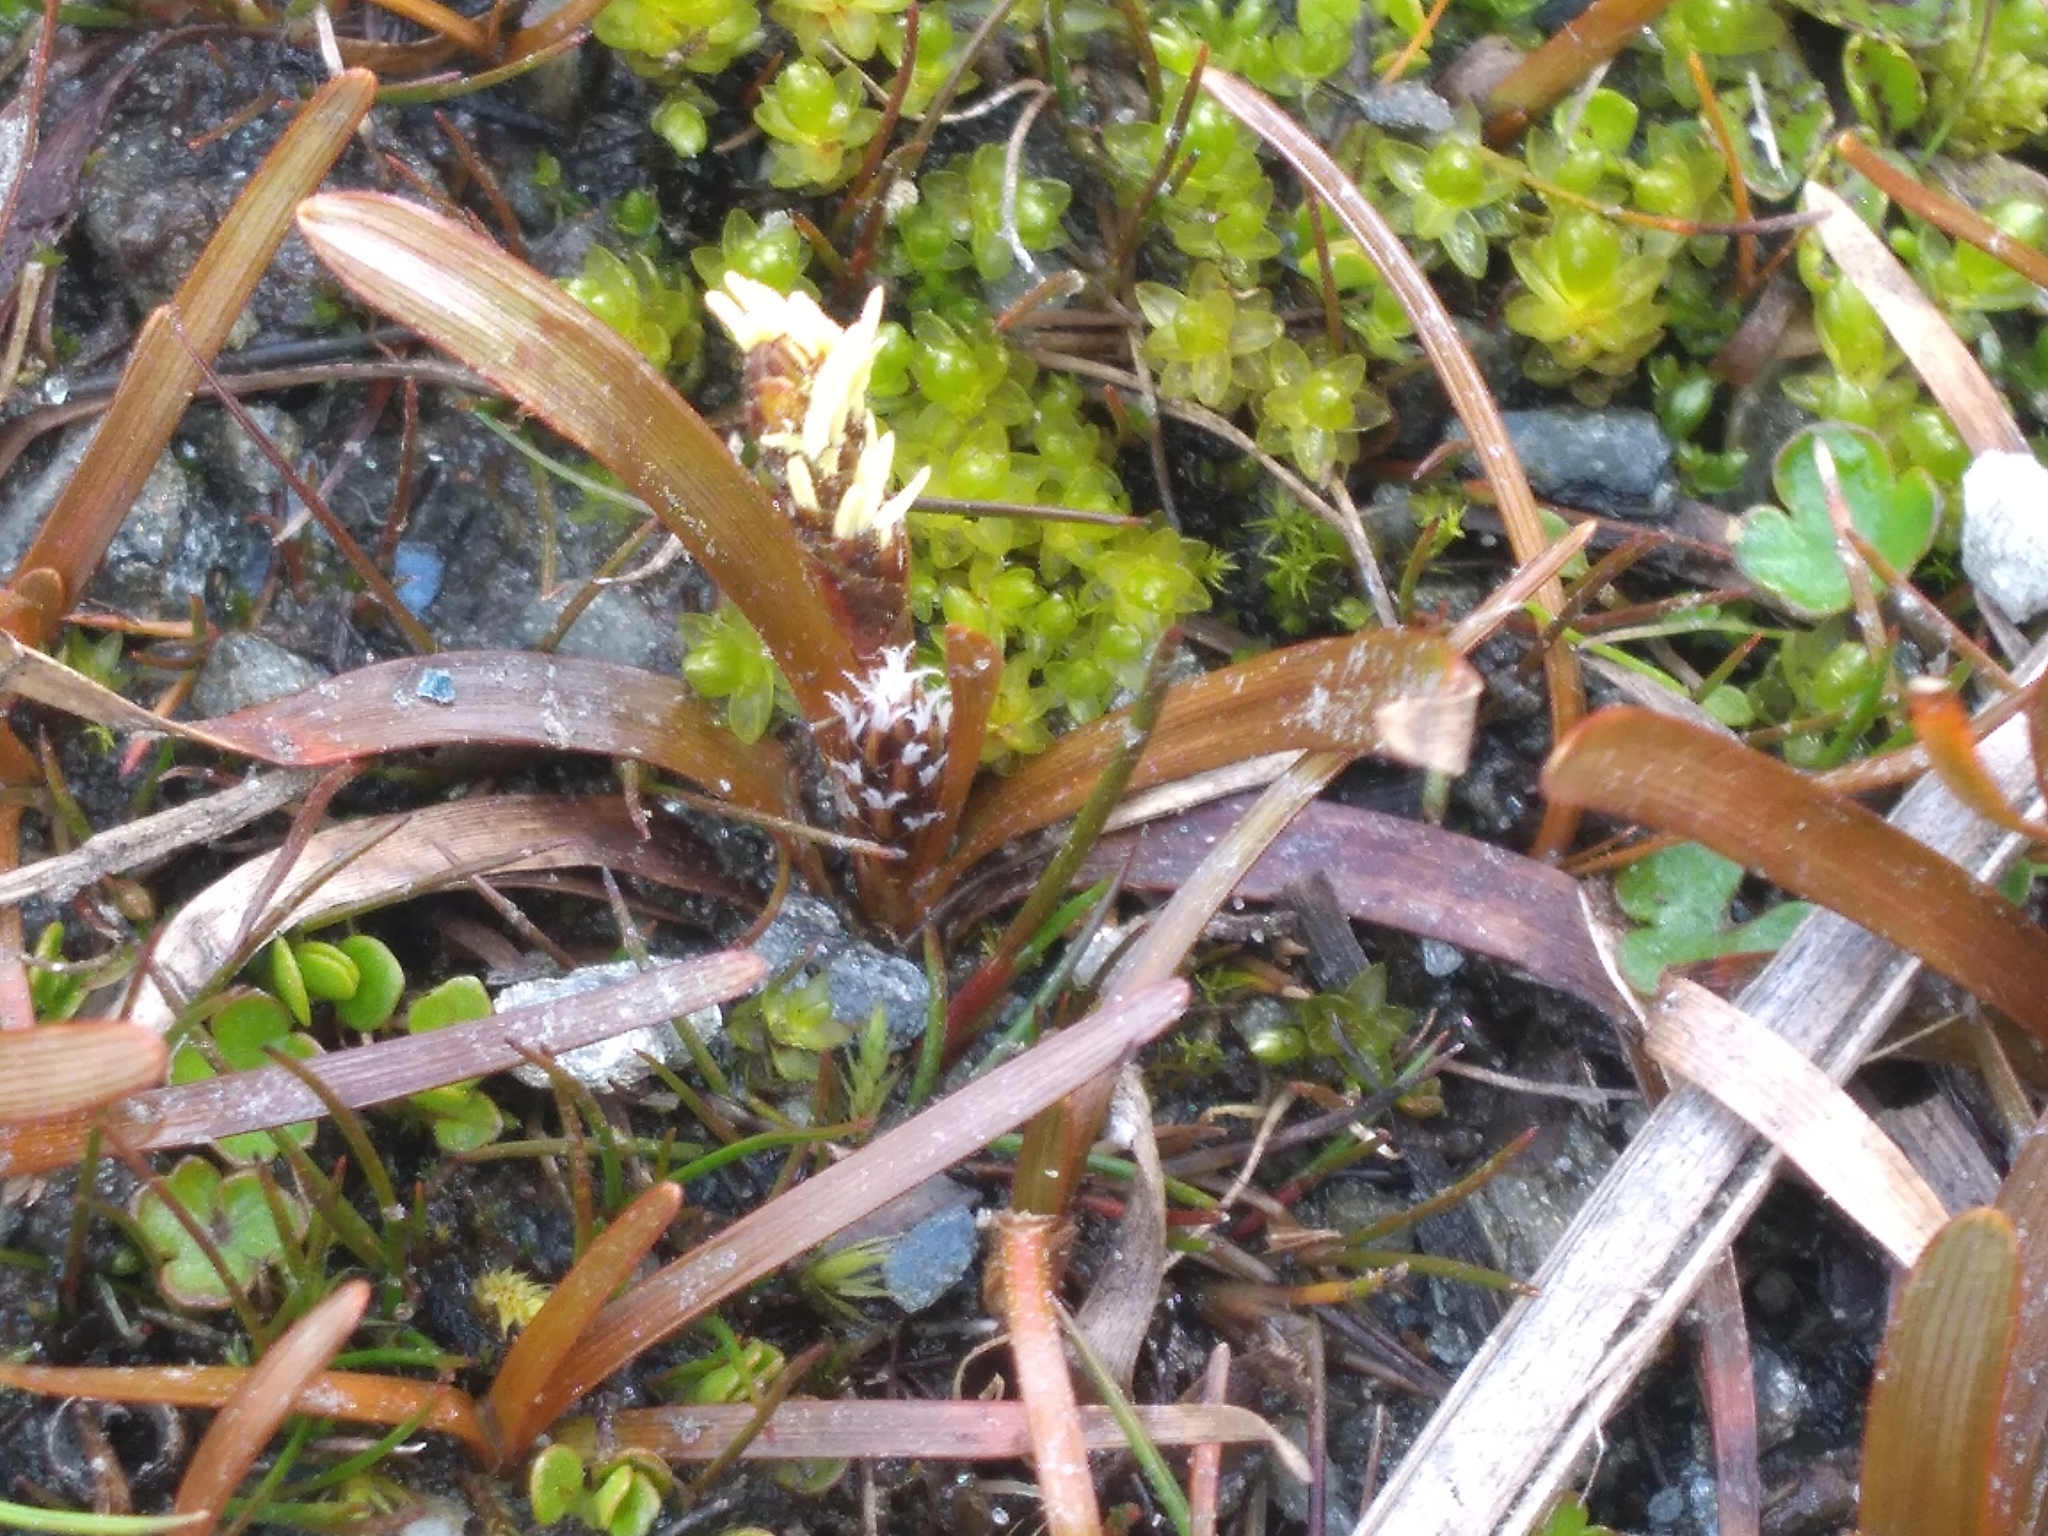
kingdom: Plantae
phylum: Tracheophyta
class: Liliopsida
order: Poales
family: Cyperaceae
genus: Carex
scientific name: Carex talbotii
